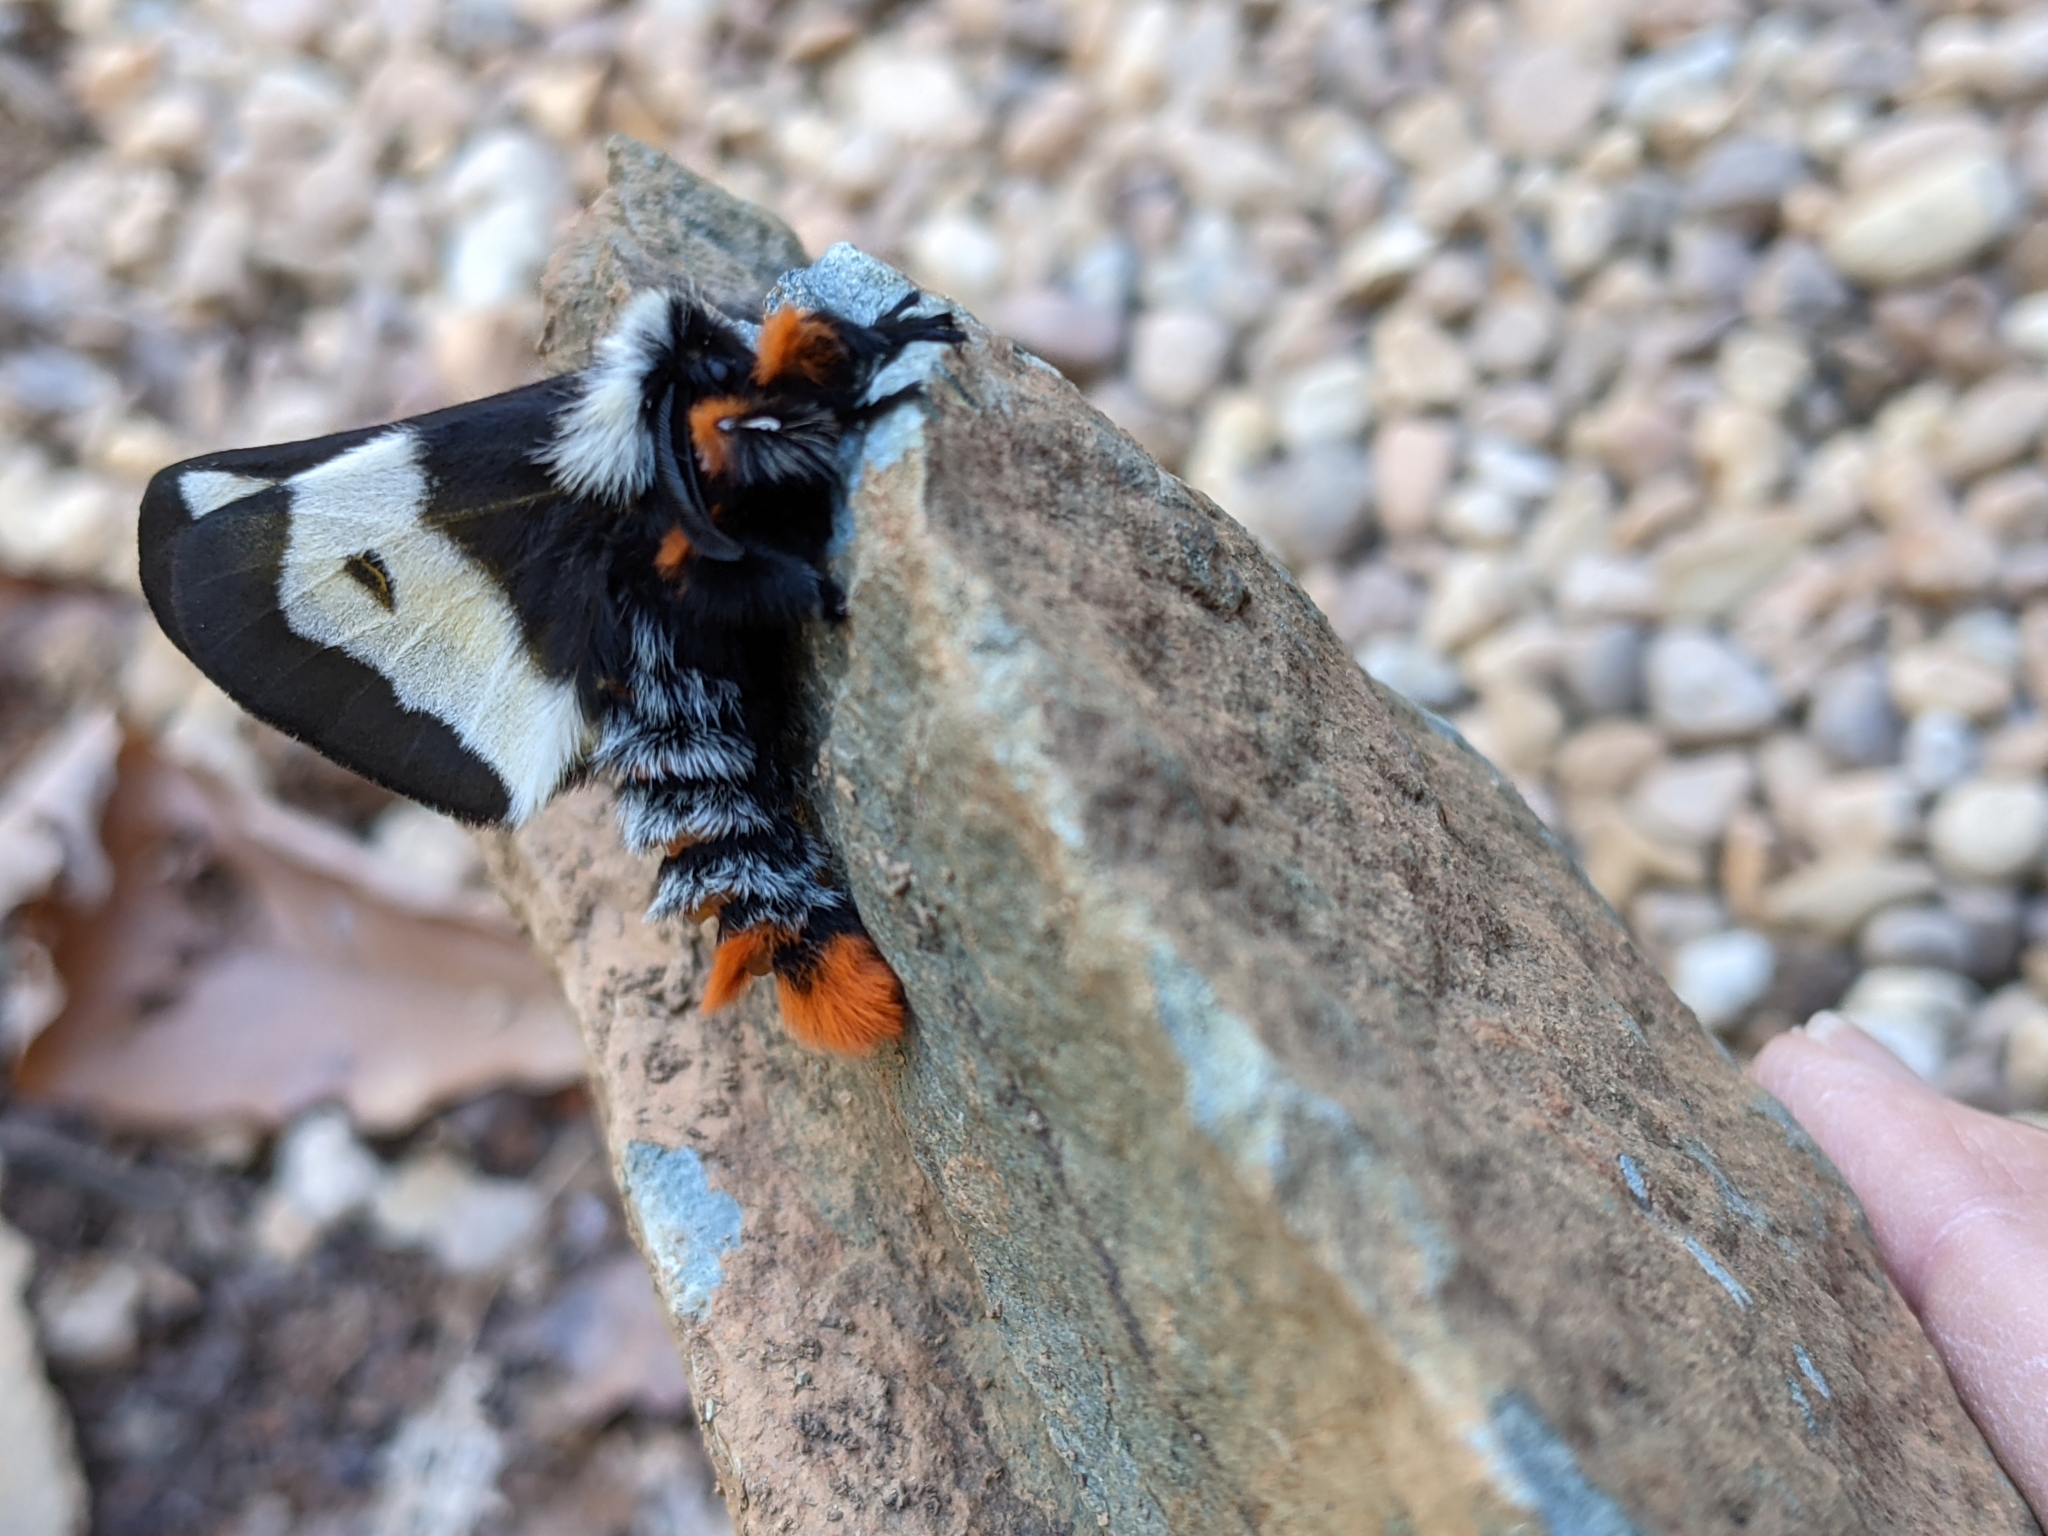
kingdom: Animalia
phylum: Arthropoda
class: Insecta
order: Lepidoptera
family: Saturniidae
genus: Hemileuca
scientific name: Hemileuca maia
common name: Eastern buckmoth
